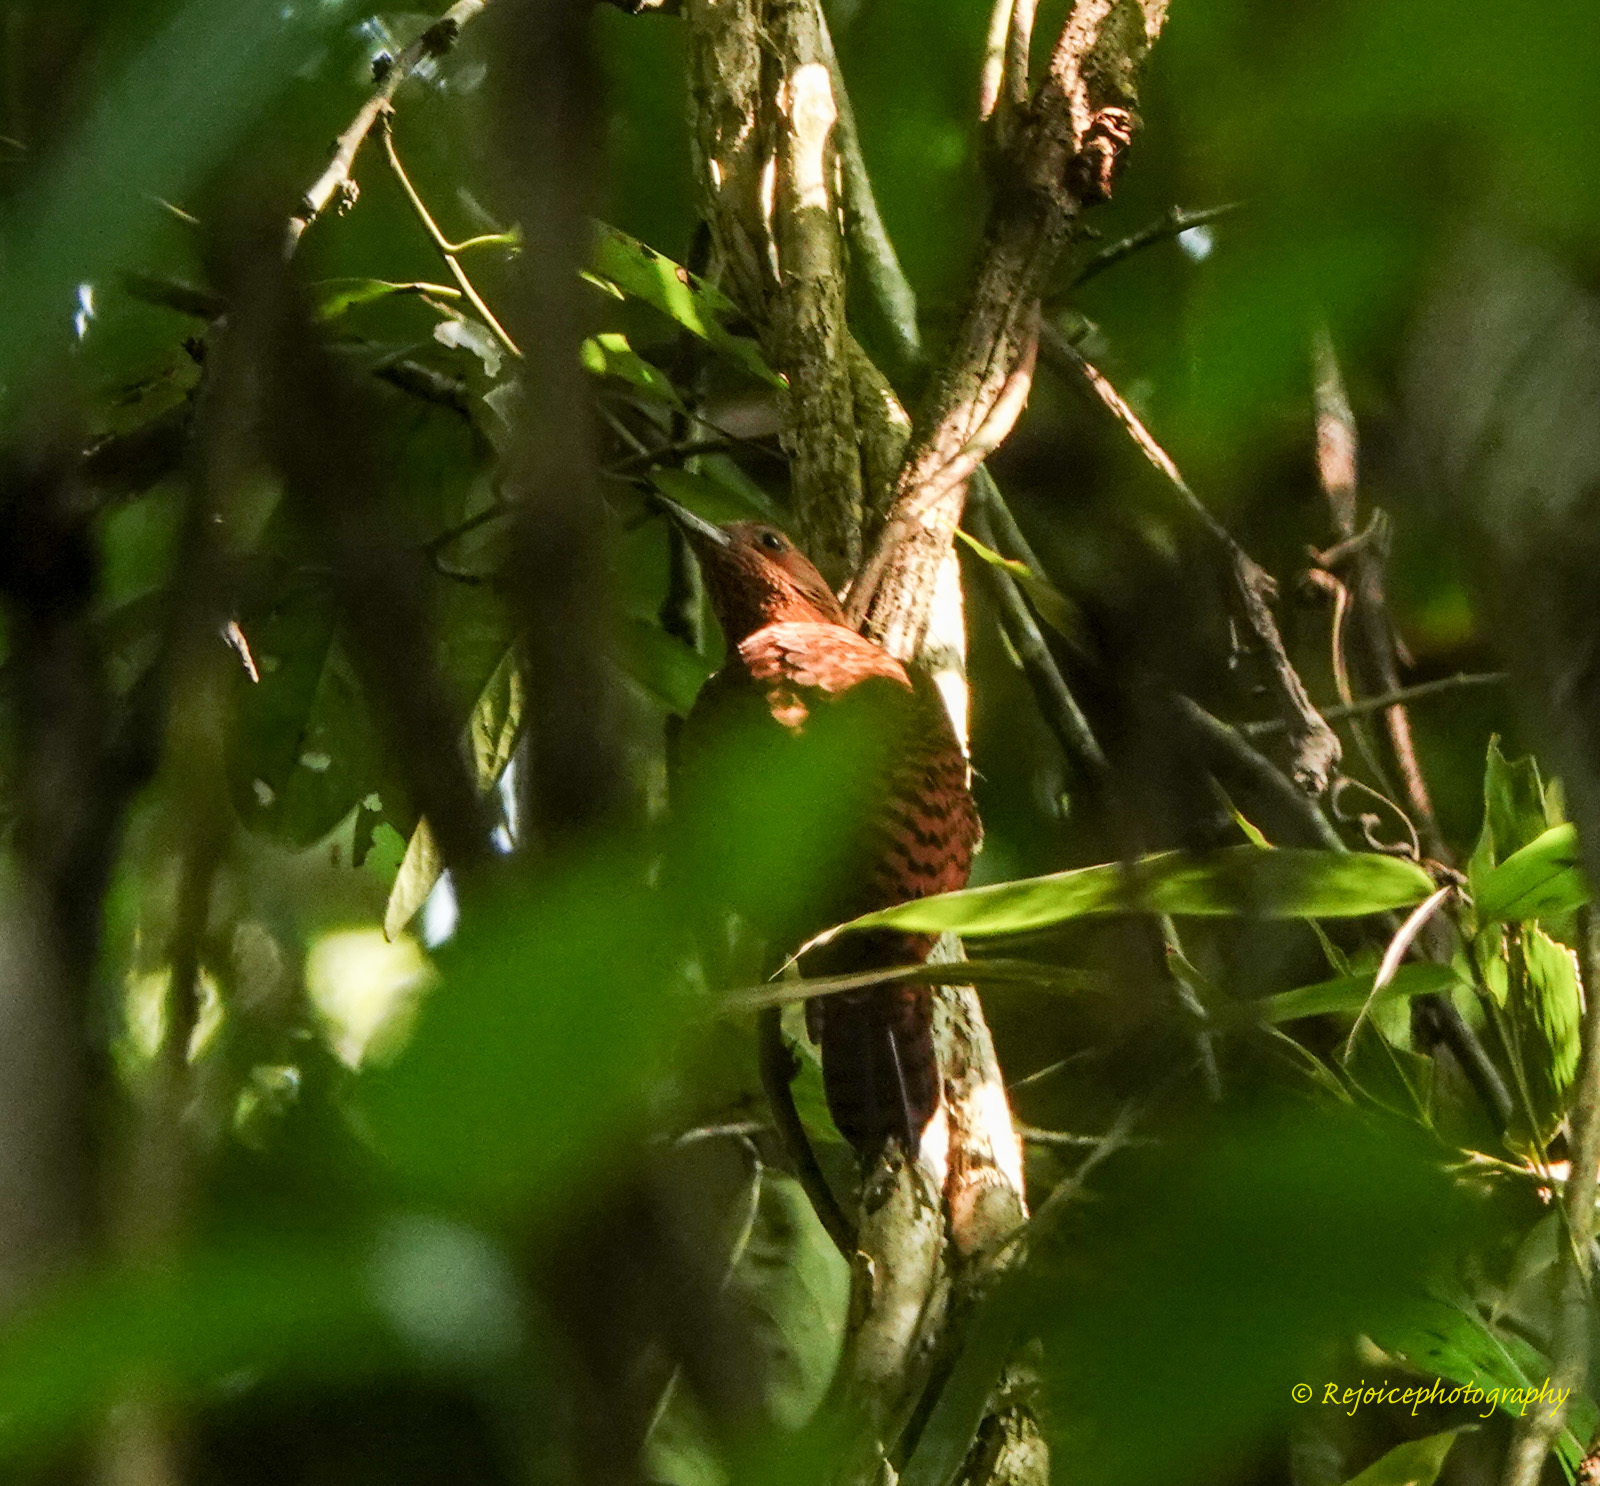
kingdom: Animalia
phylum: Chordata
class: Aves
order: Piciformes
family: Picidae
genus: Micropternus
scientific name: Micropternus brachyurus
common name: Rufous woodpecker
